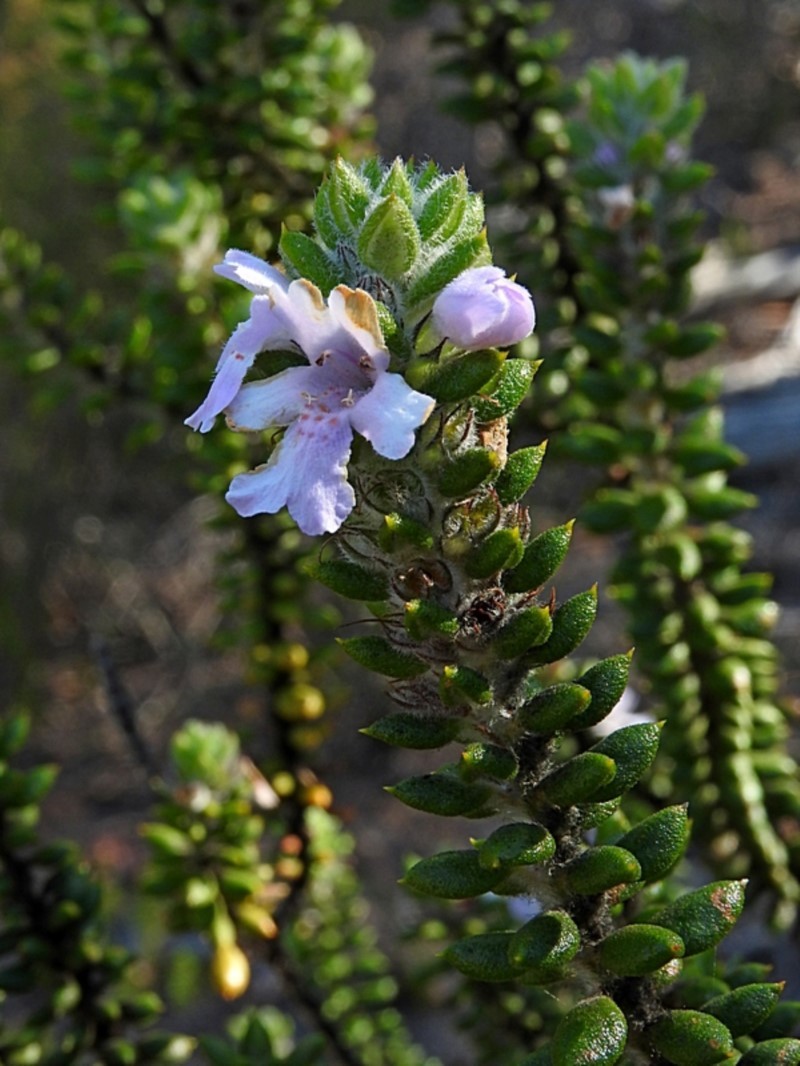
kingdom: Plantae
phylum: Tracheophyta
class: Magnoliopsida
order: Lamiales
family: Lamiaceae
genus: Westringia
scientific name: Westringia davidii
